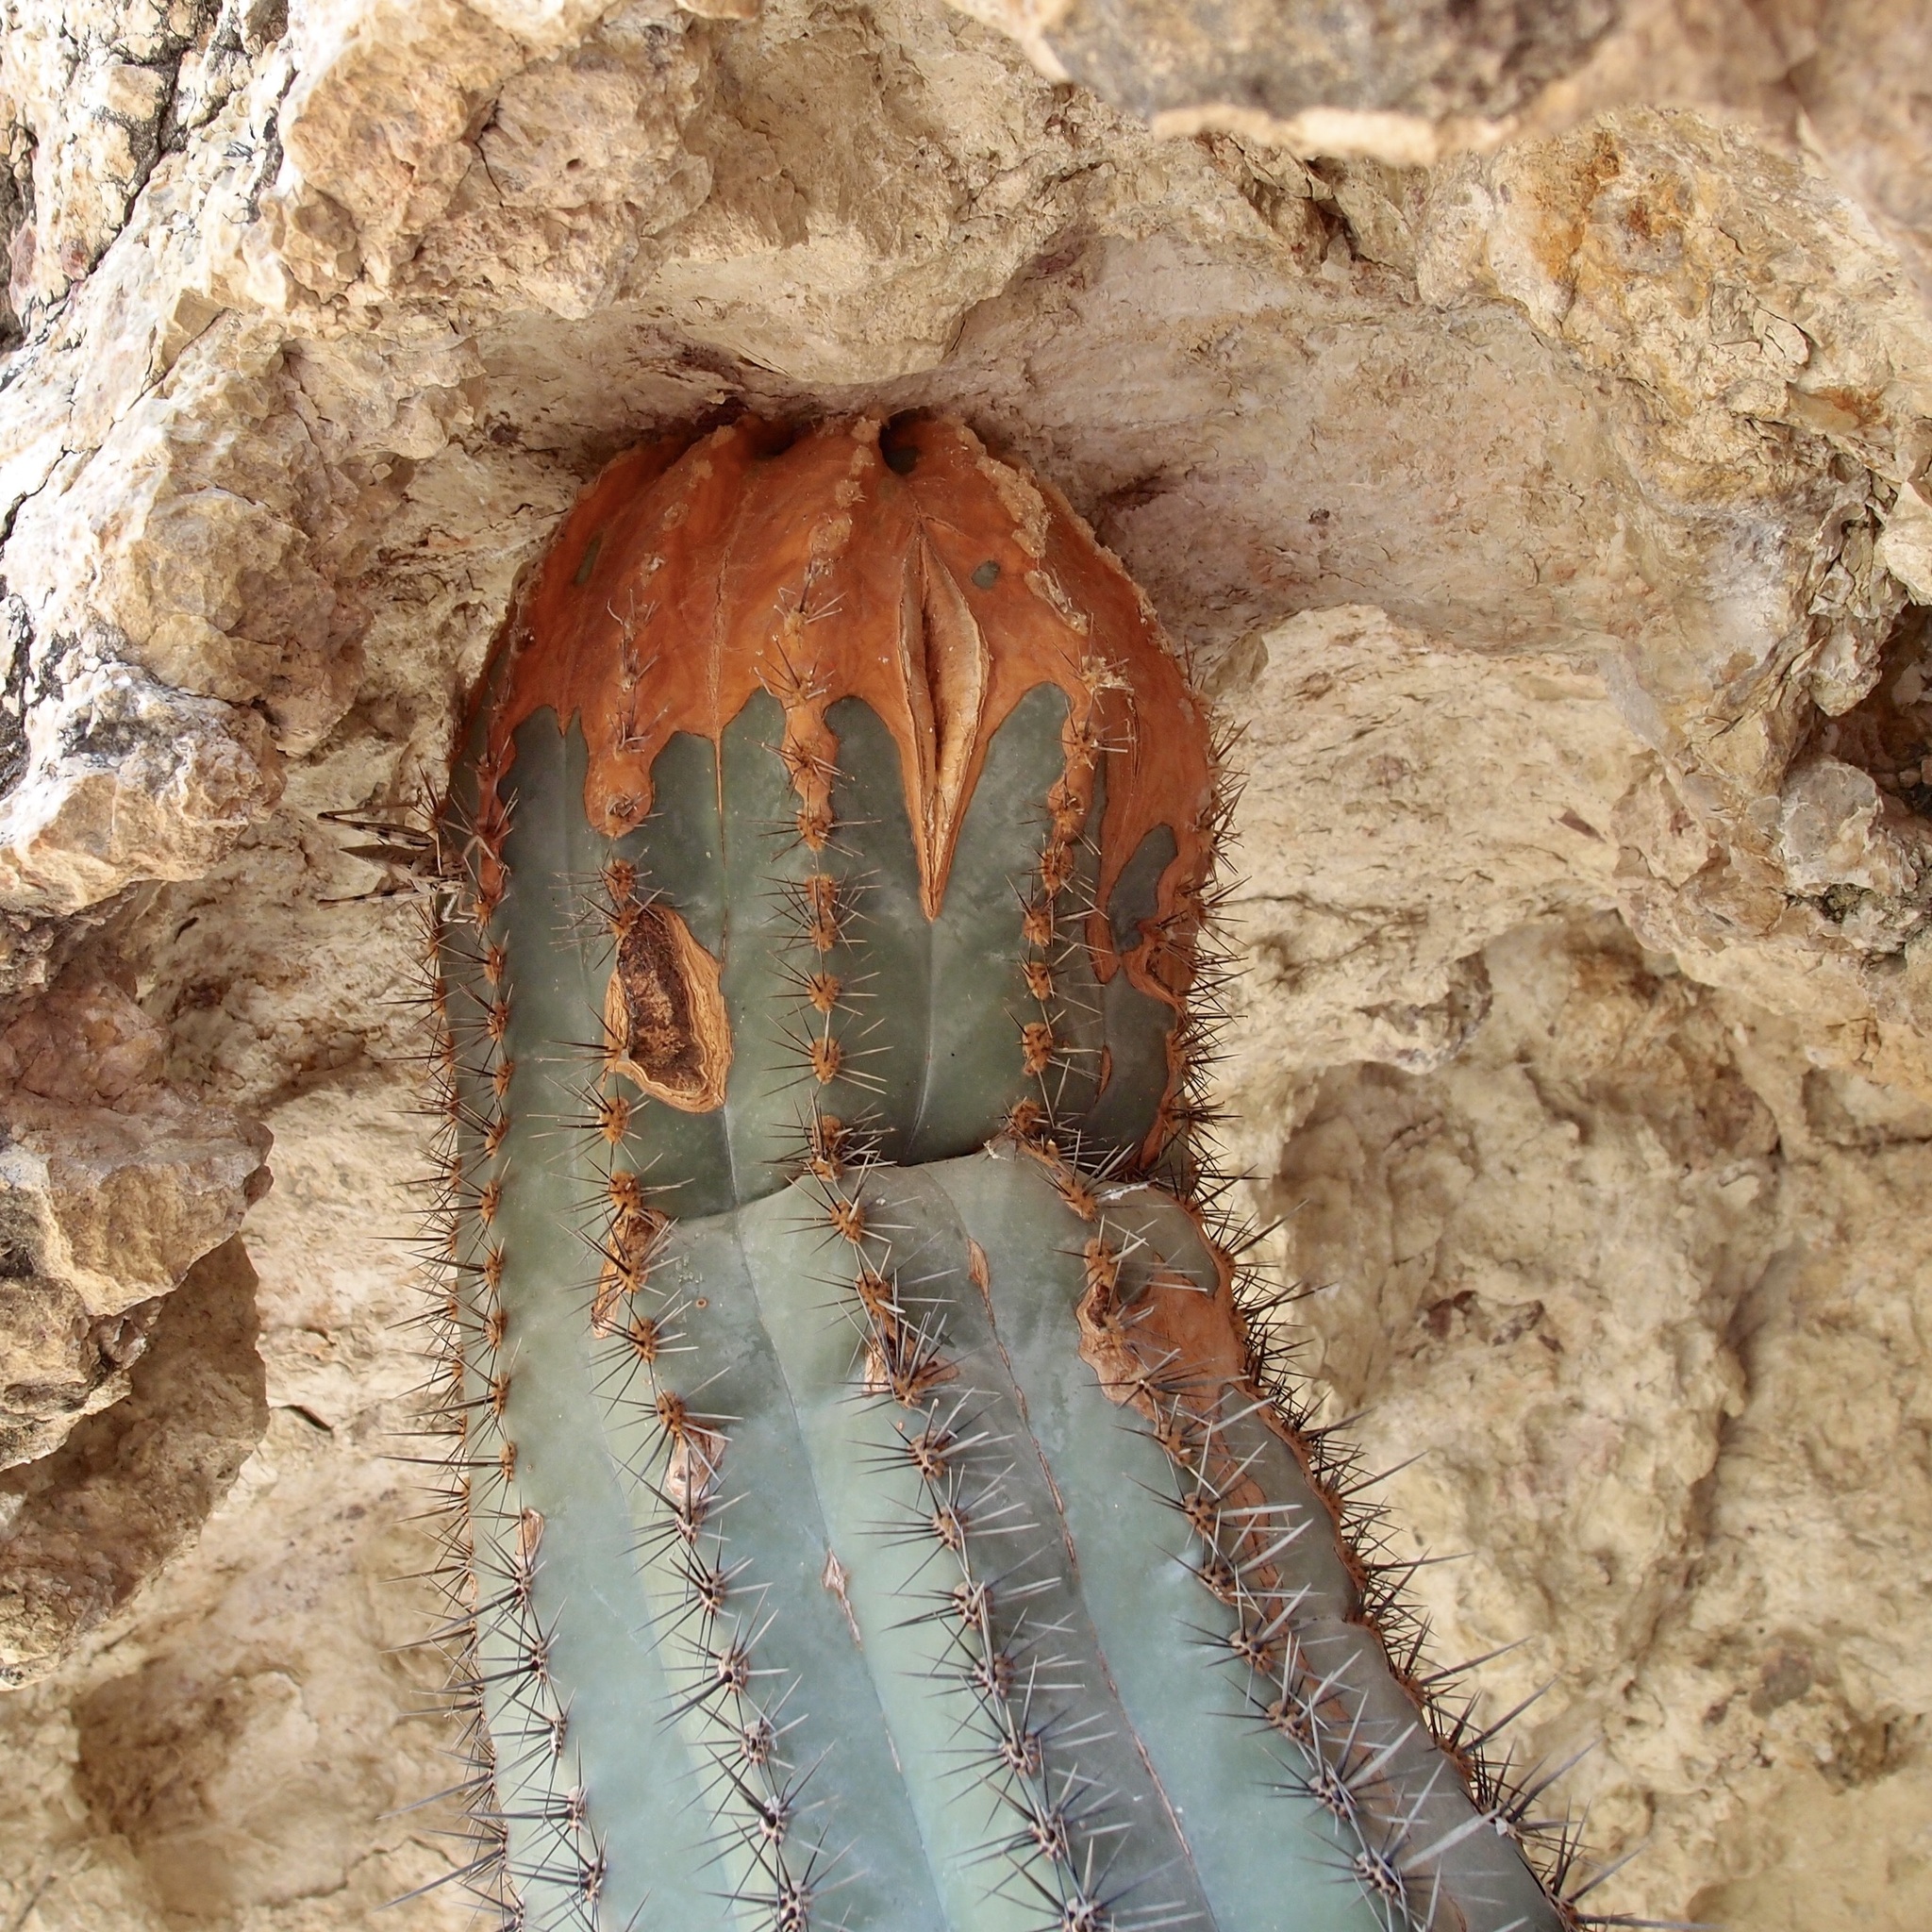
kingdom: Plantae
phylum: Tracheophyta
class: Magnoliopsida
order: Caryophyllales
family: Cactaceae
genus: Carnegiea
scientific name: Carnegiea gigantea
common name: Saguaro
